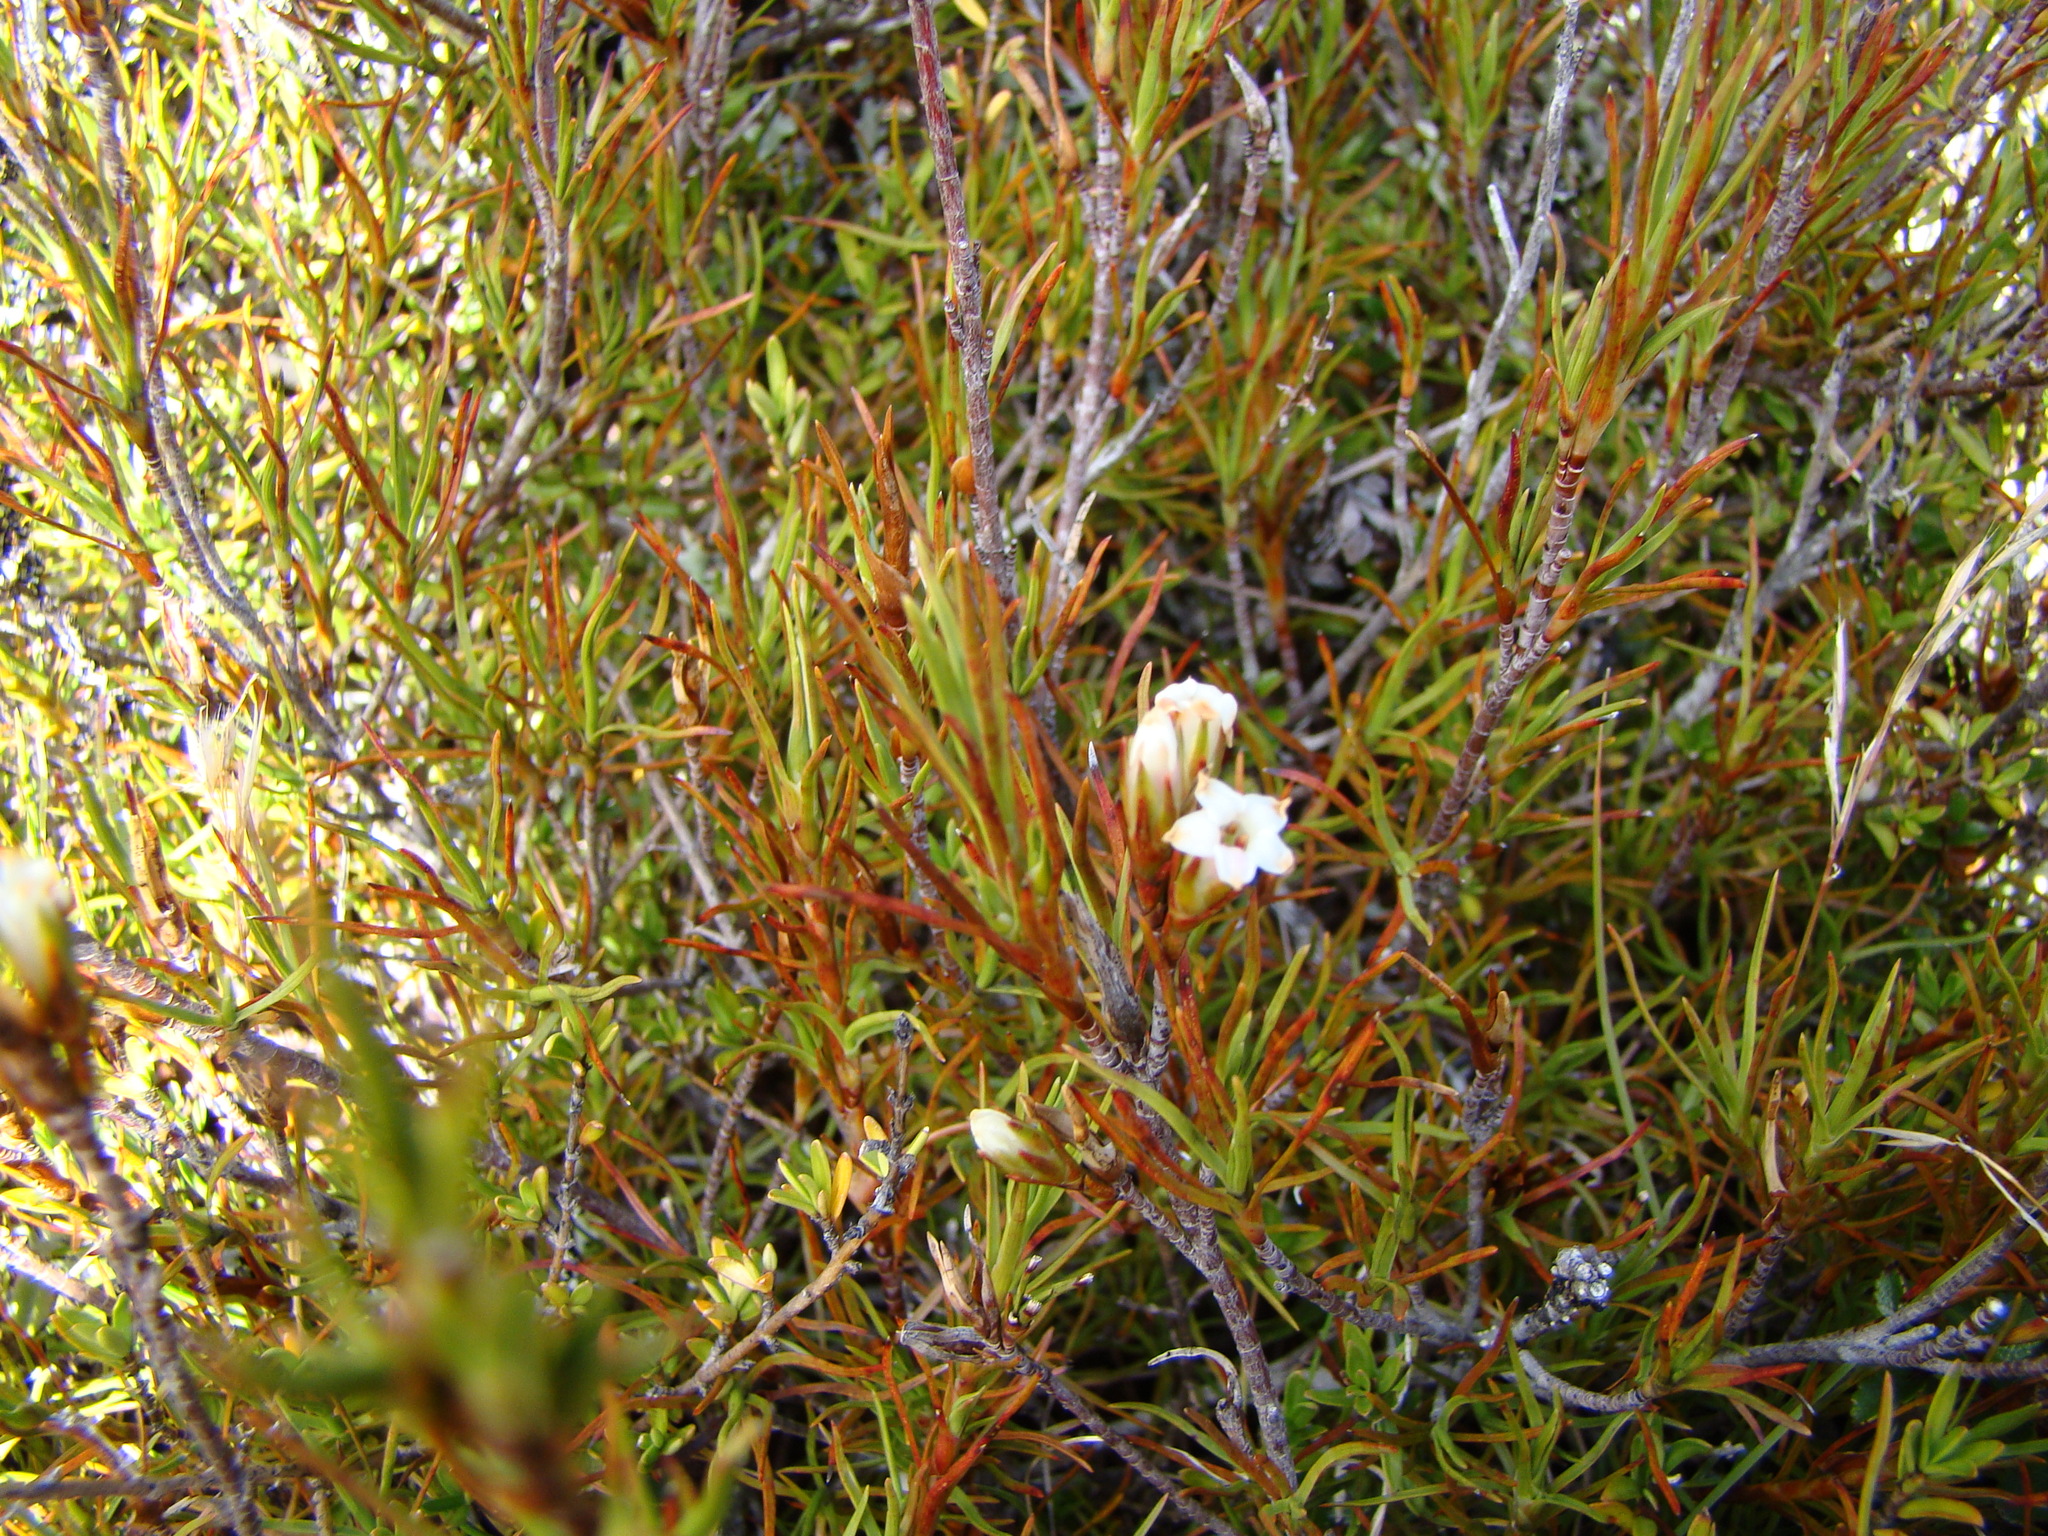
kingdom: Plantae
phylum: Tracheophyta
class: Magnoliopsida
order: Ericales
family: Ericaceae
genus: Dracophyllum
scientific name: Dracophyllum rosmarinifolium
